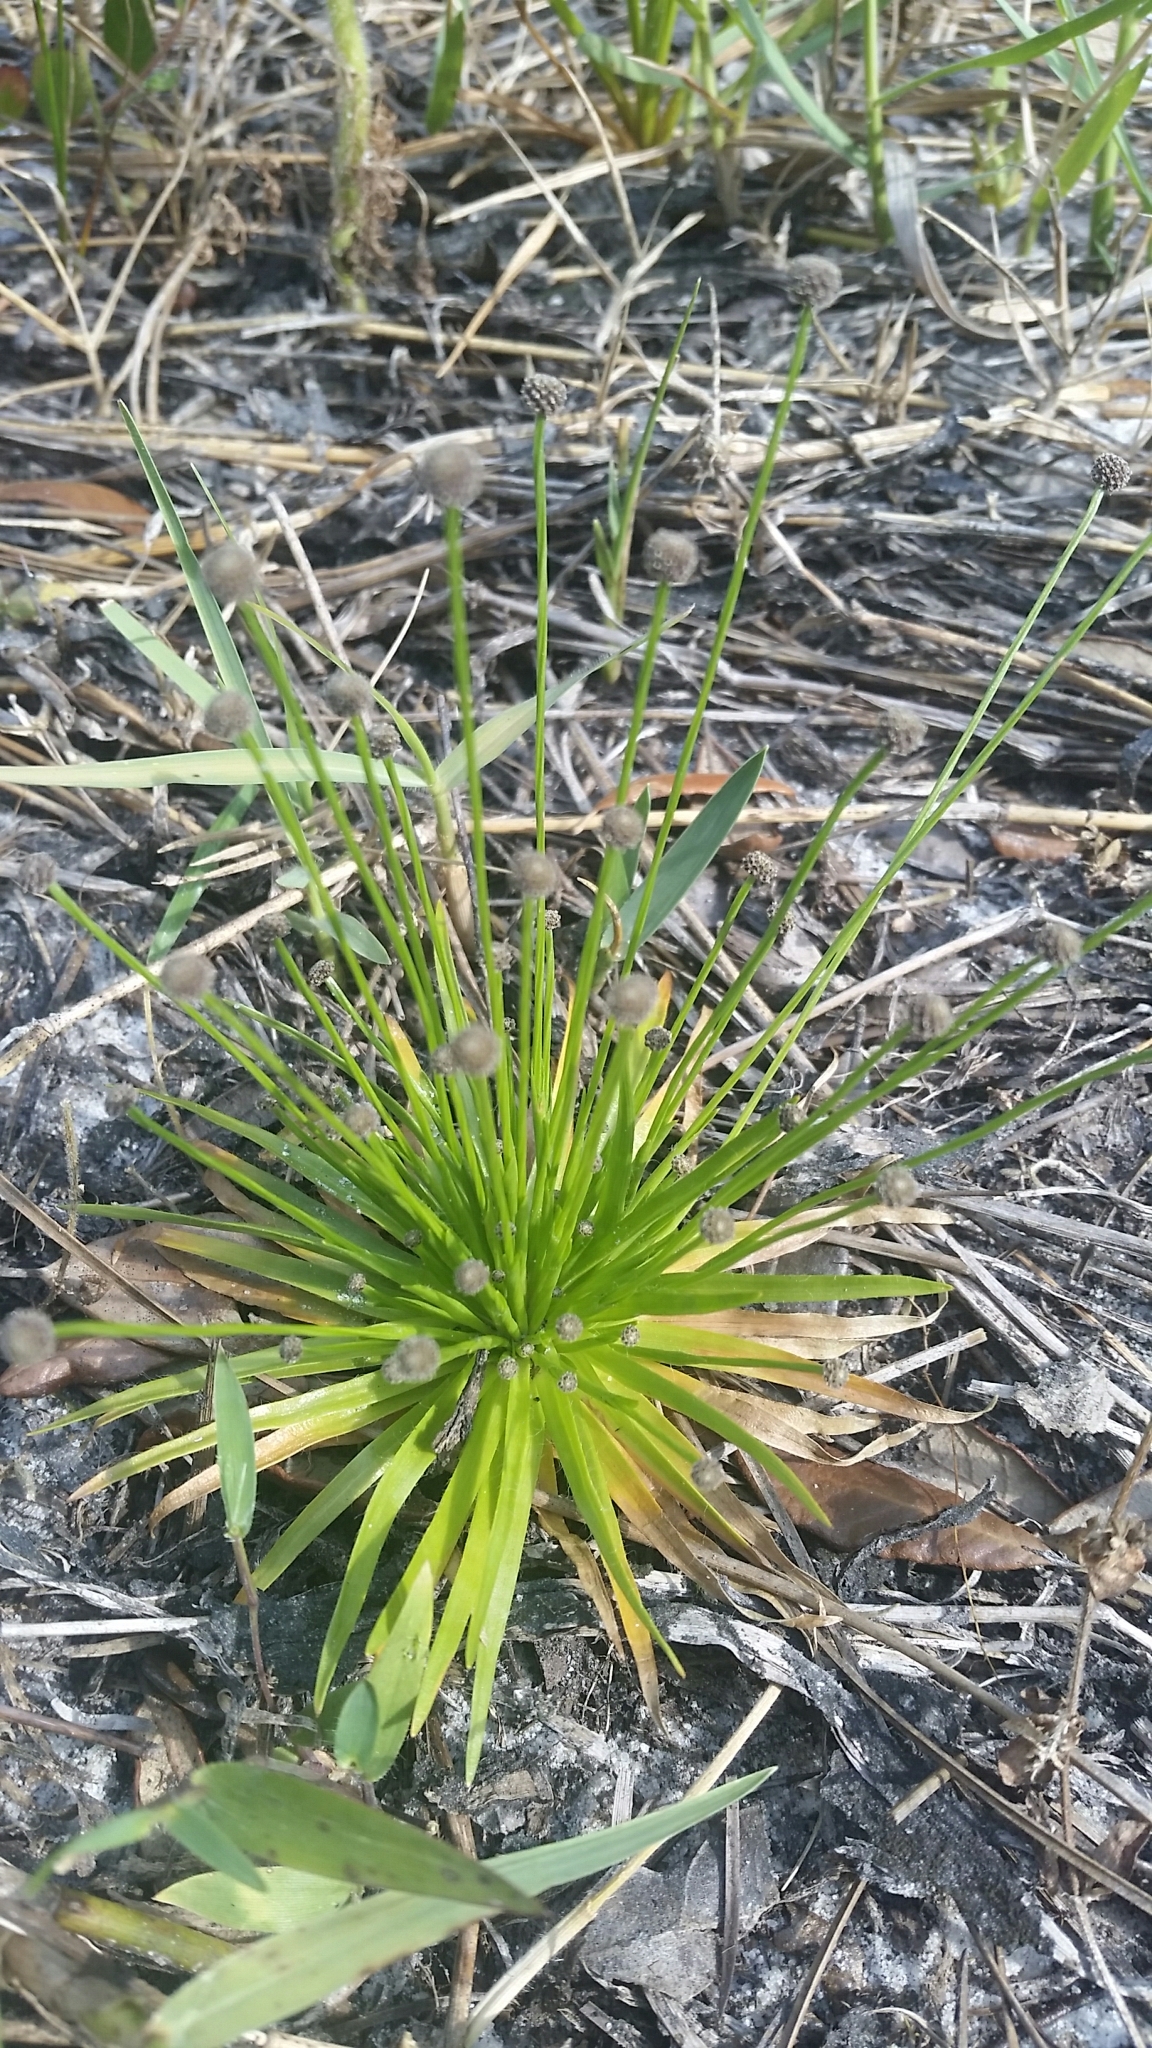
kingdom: Plantae
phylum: Tracheophyta
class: Liliopsida
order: Poales
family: Eriocaulaceae
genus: Paepalanthus
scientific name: Paepalanthus engleri
